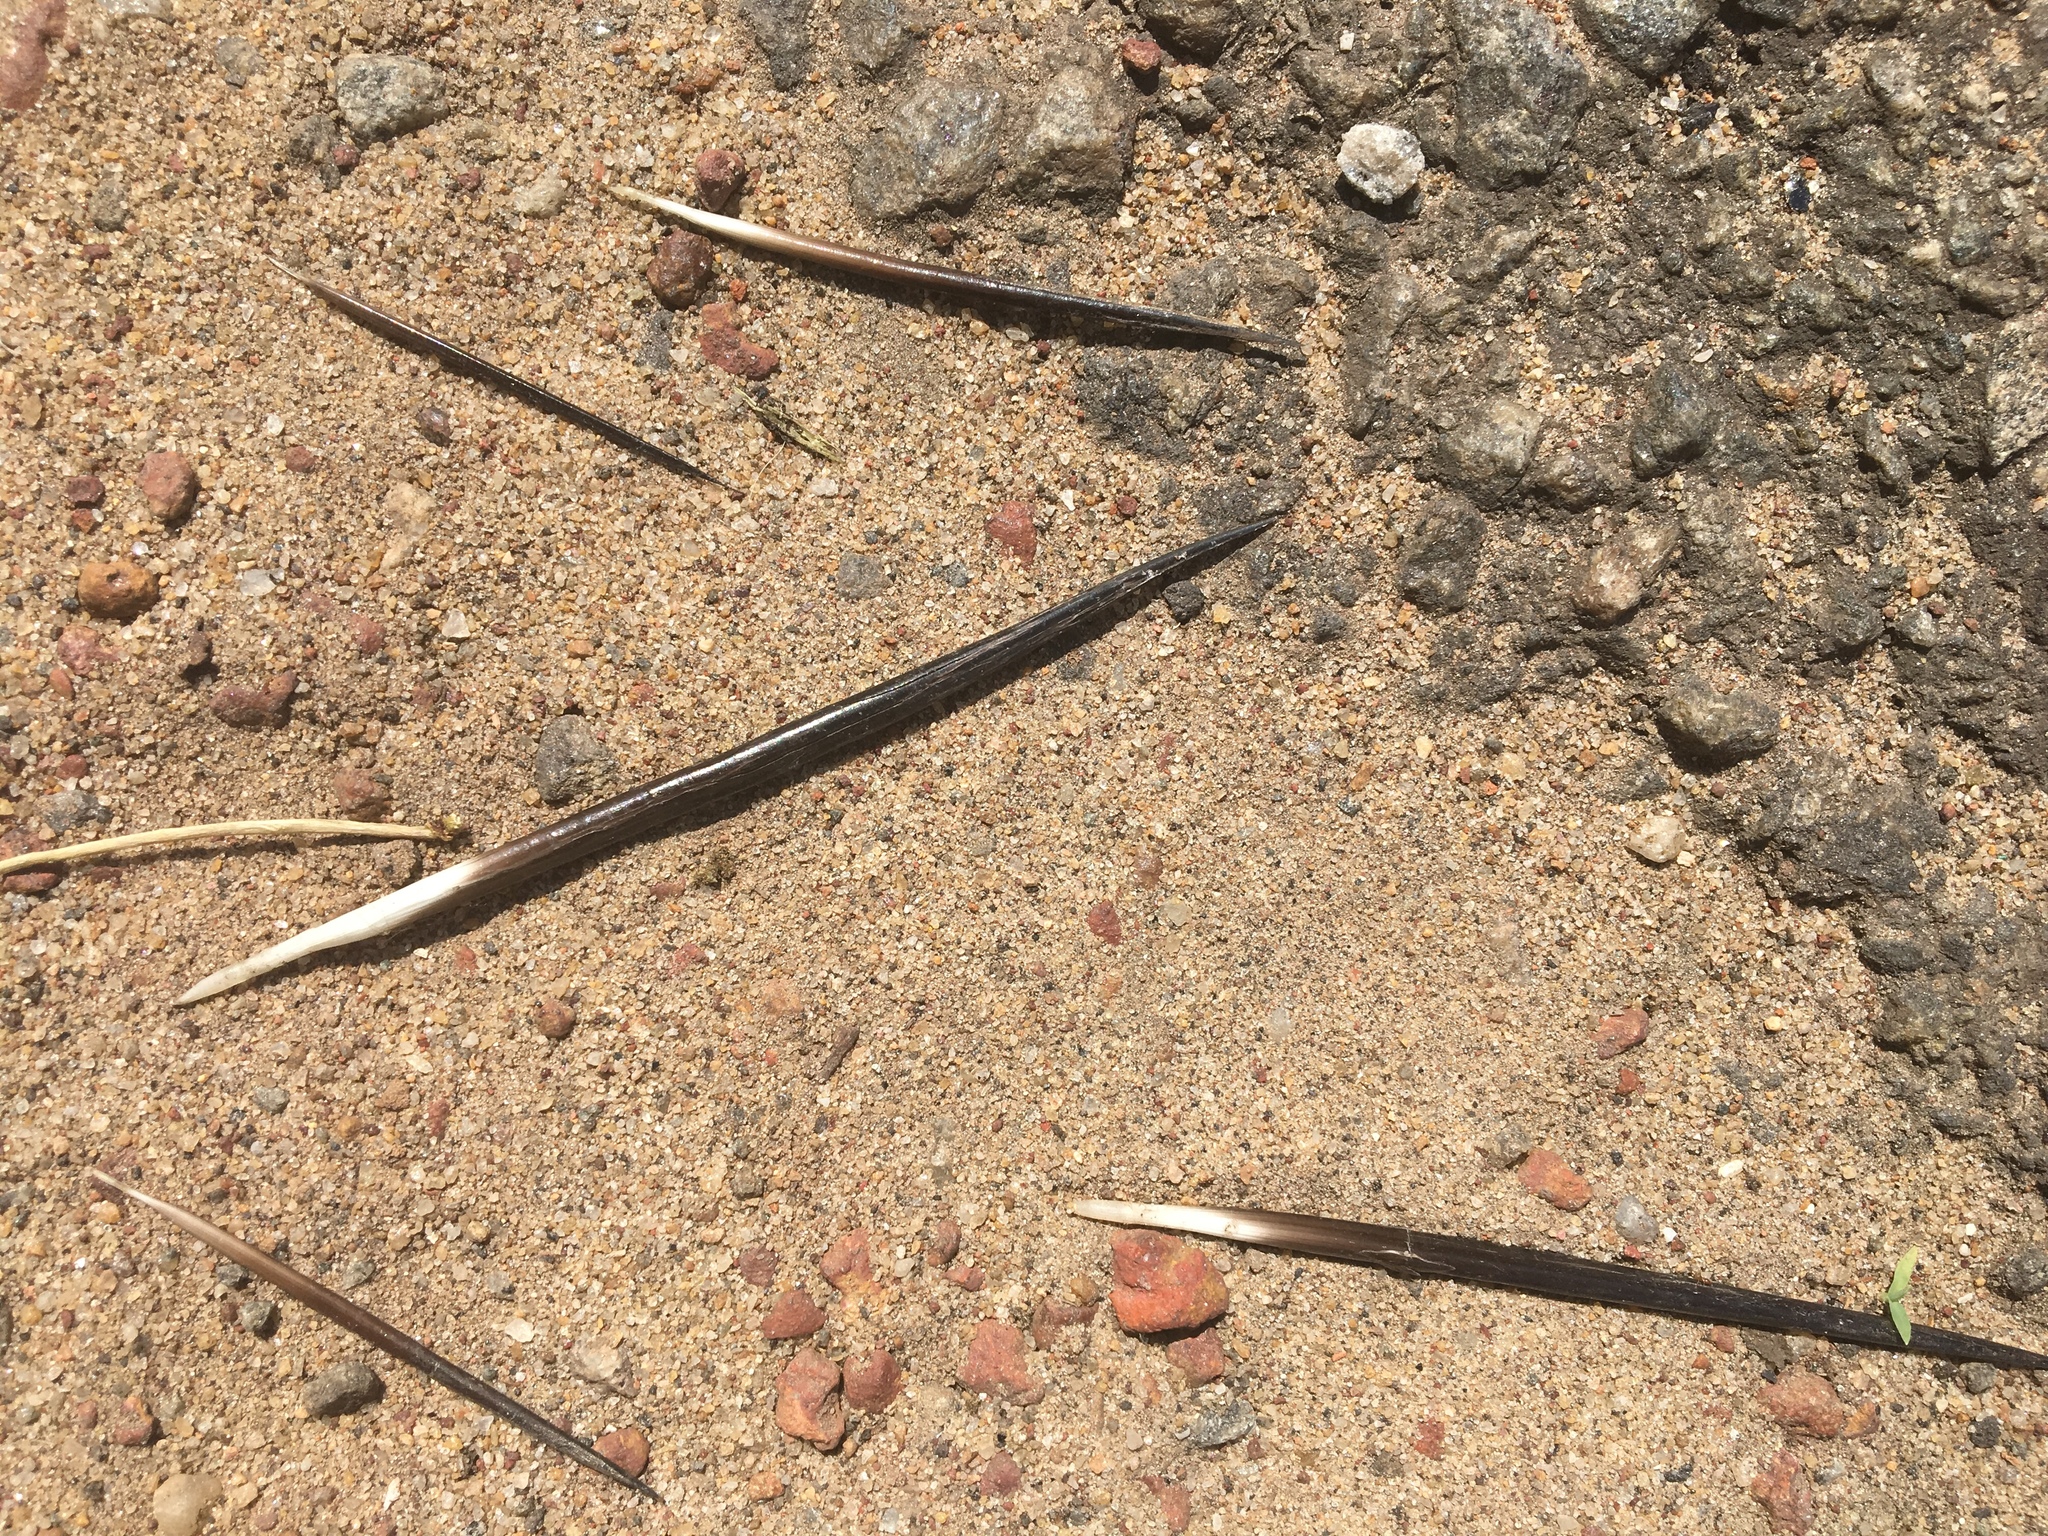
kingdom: Animalia
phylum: Chordata
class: Mammalia
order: Rodentia
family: Hystricidae
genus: Hystrix
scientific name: Hystrix indica
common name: Indian crested porcupine
